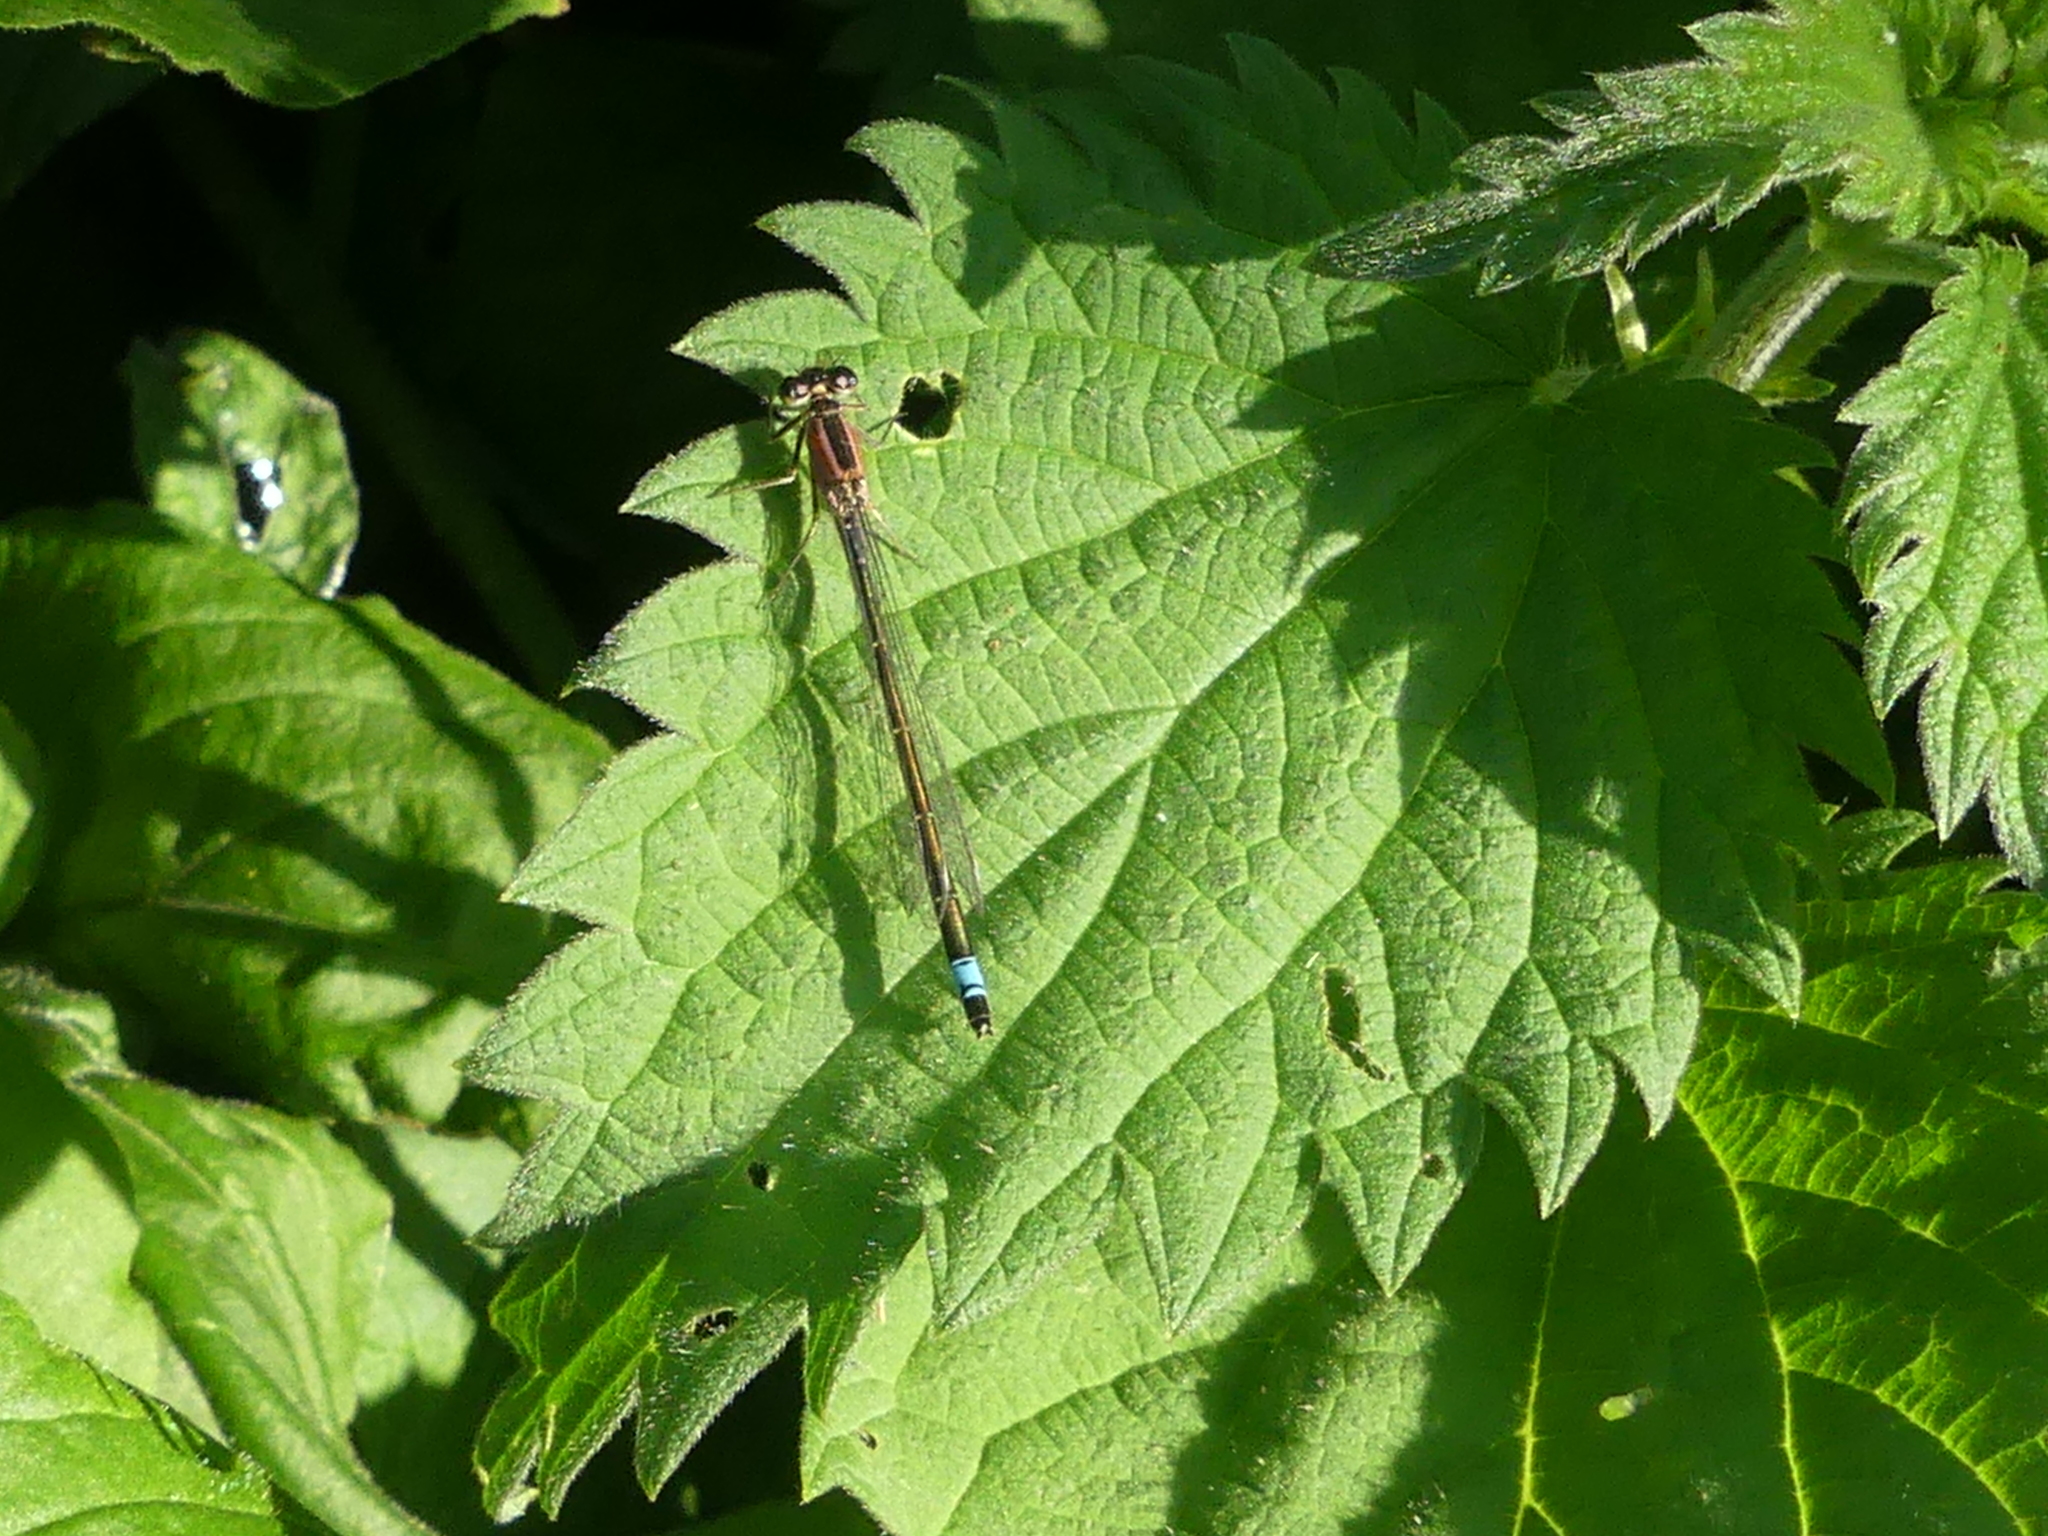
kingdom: Animalia
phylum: Arthropoda
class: Insecta
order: Odonata
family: Coenagrionidae
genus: Ischnura
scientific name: Ischnura elegans
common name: Blue-tailed damselfly
